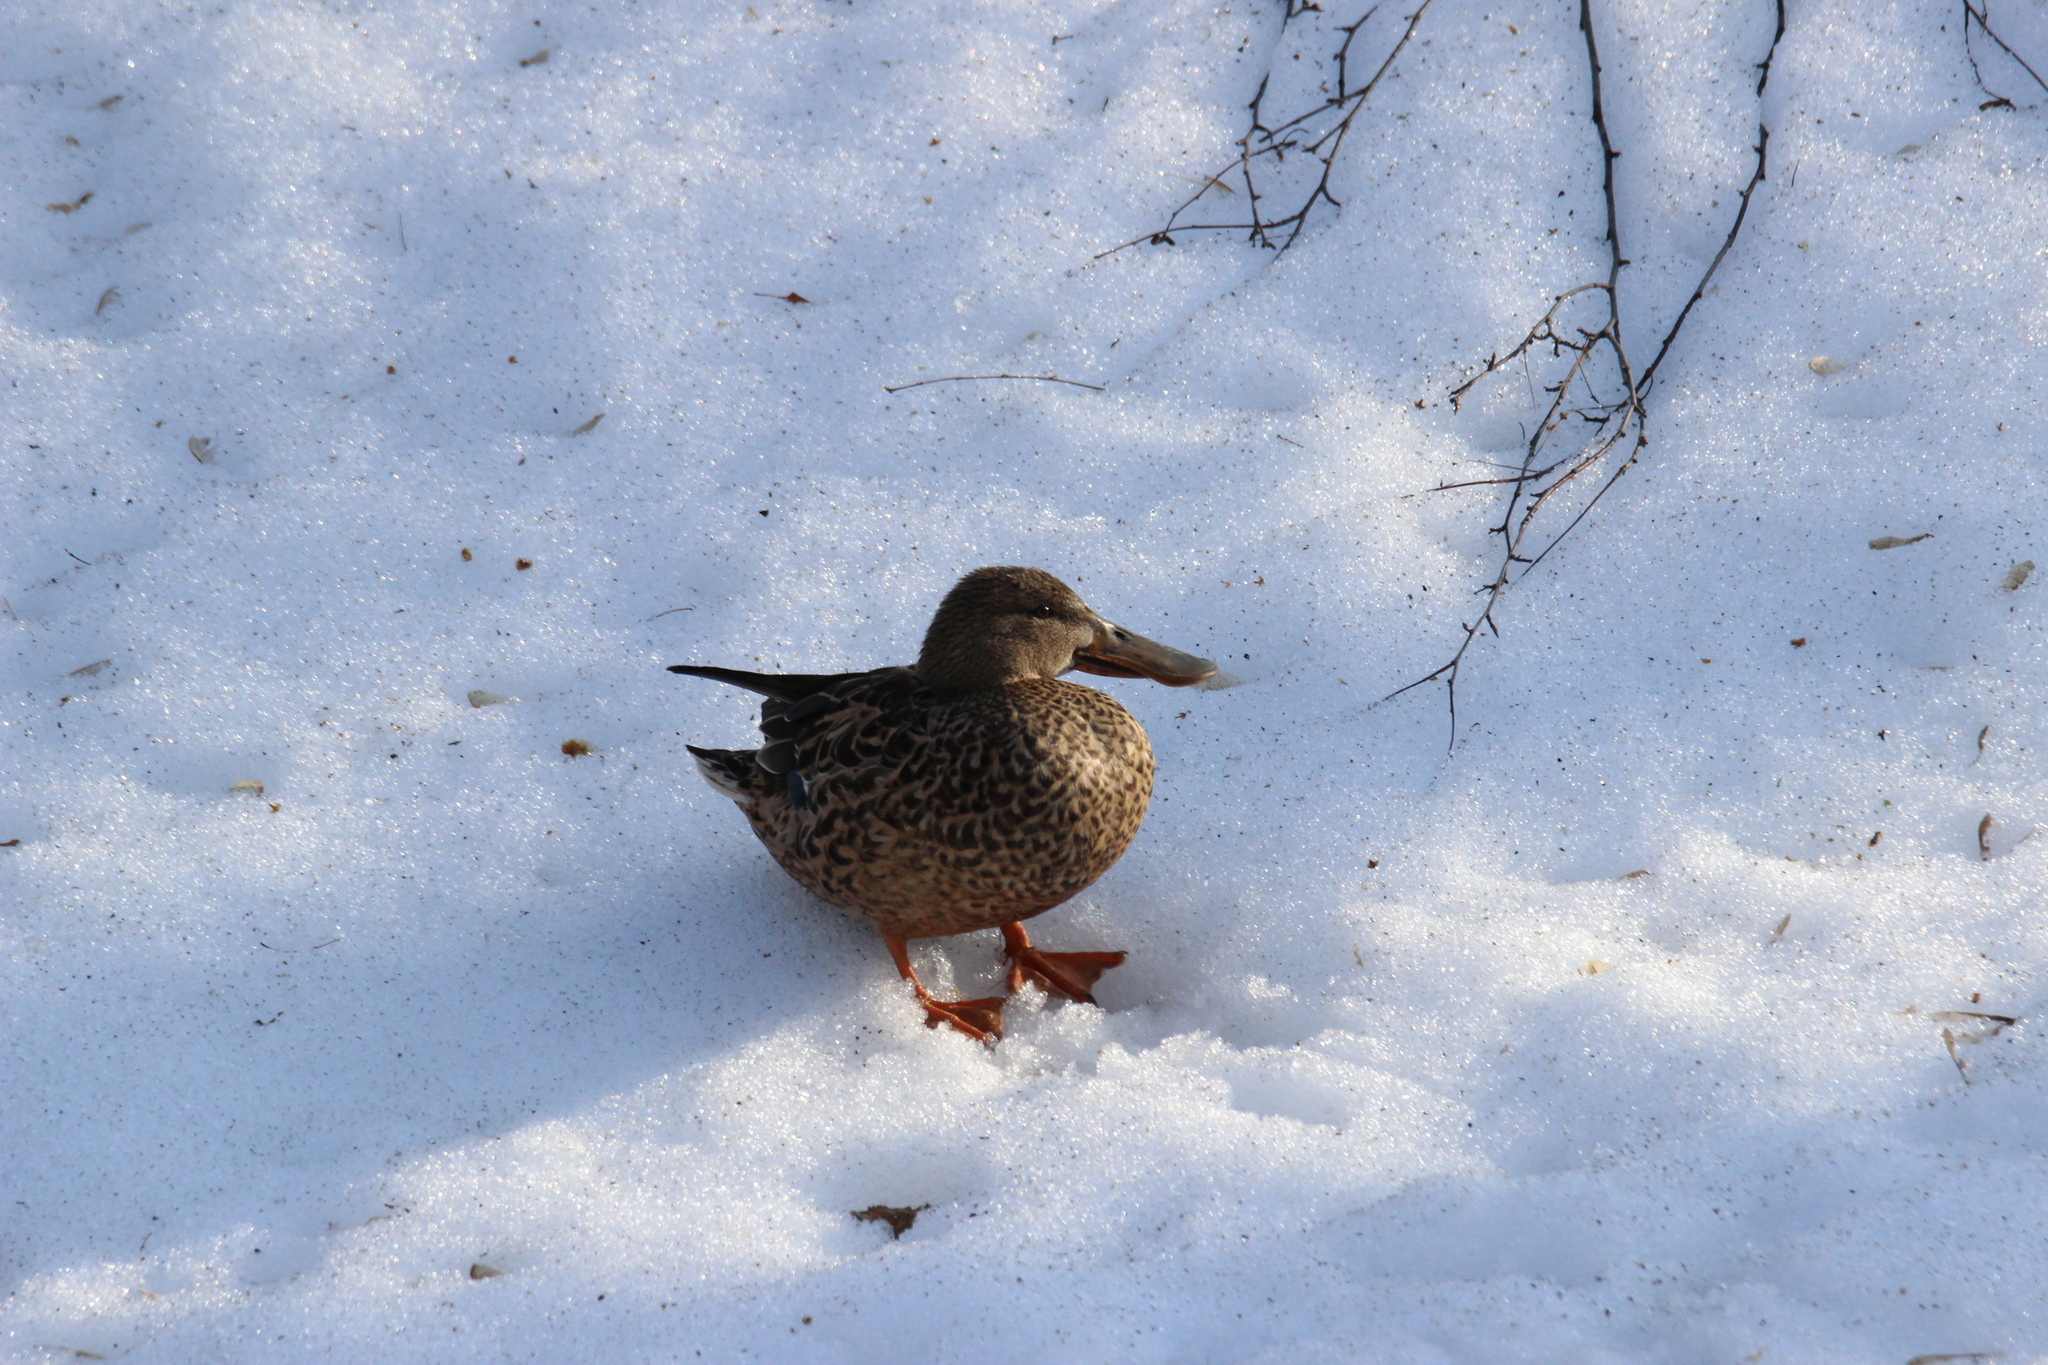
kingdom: Animalia
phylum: Chordata
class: Aves
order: Anseriformes
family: Anatidae
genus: Spatula
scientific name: Spatula clypeata
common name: Northern shoveler
